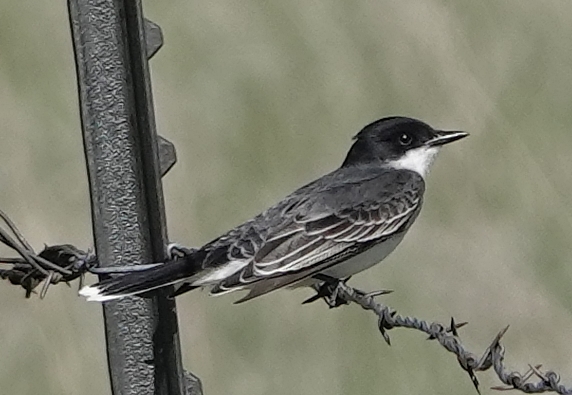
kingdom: Animalia
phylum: Chordata
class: Aves
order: Passeriformes
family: Tyrannidae
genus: Tyrannus
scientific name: Tyrannus tyrannus
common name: Eastern kingbird
